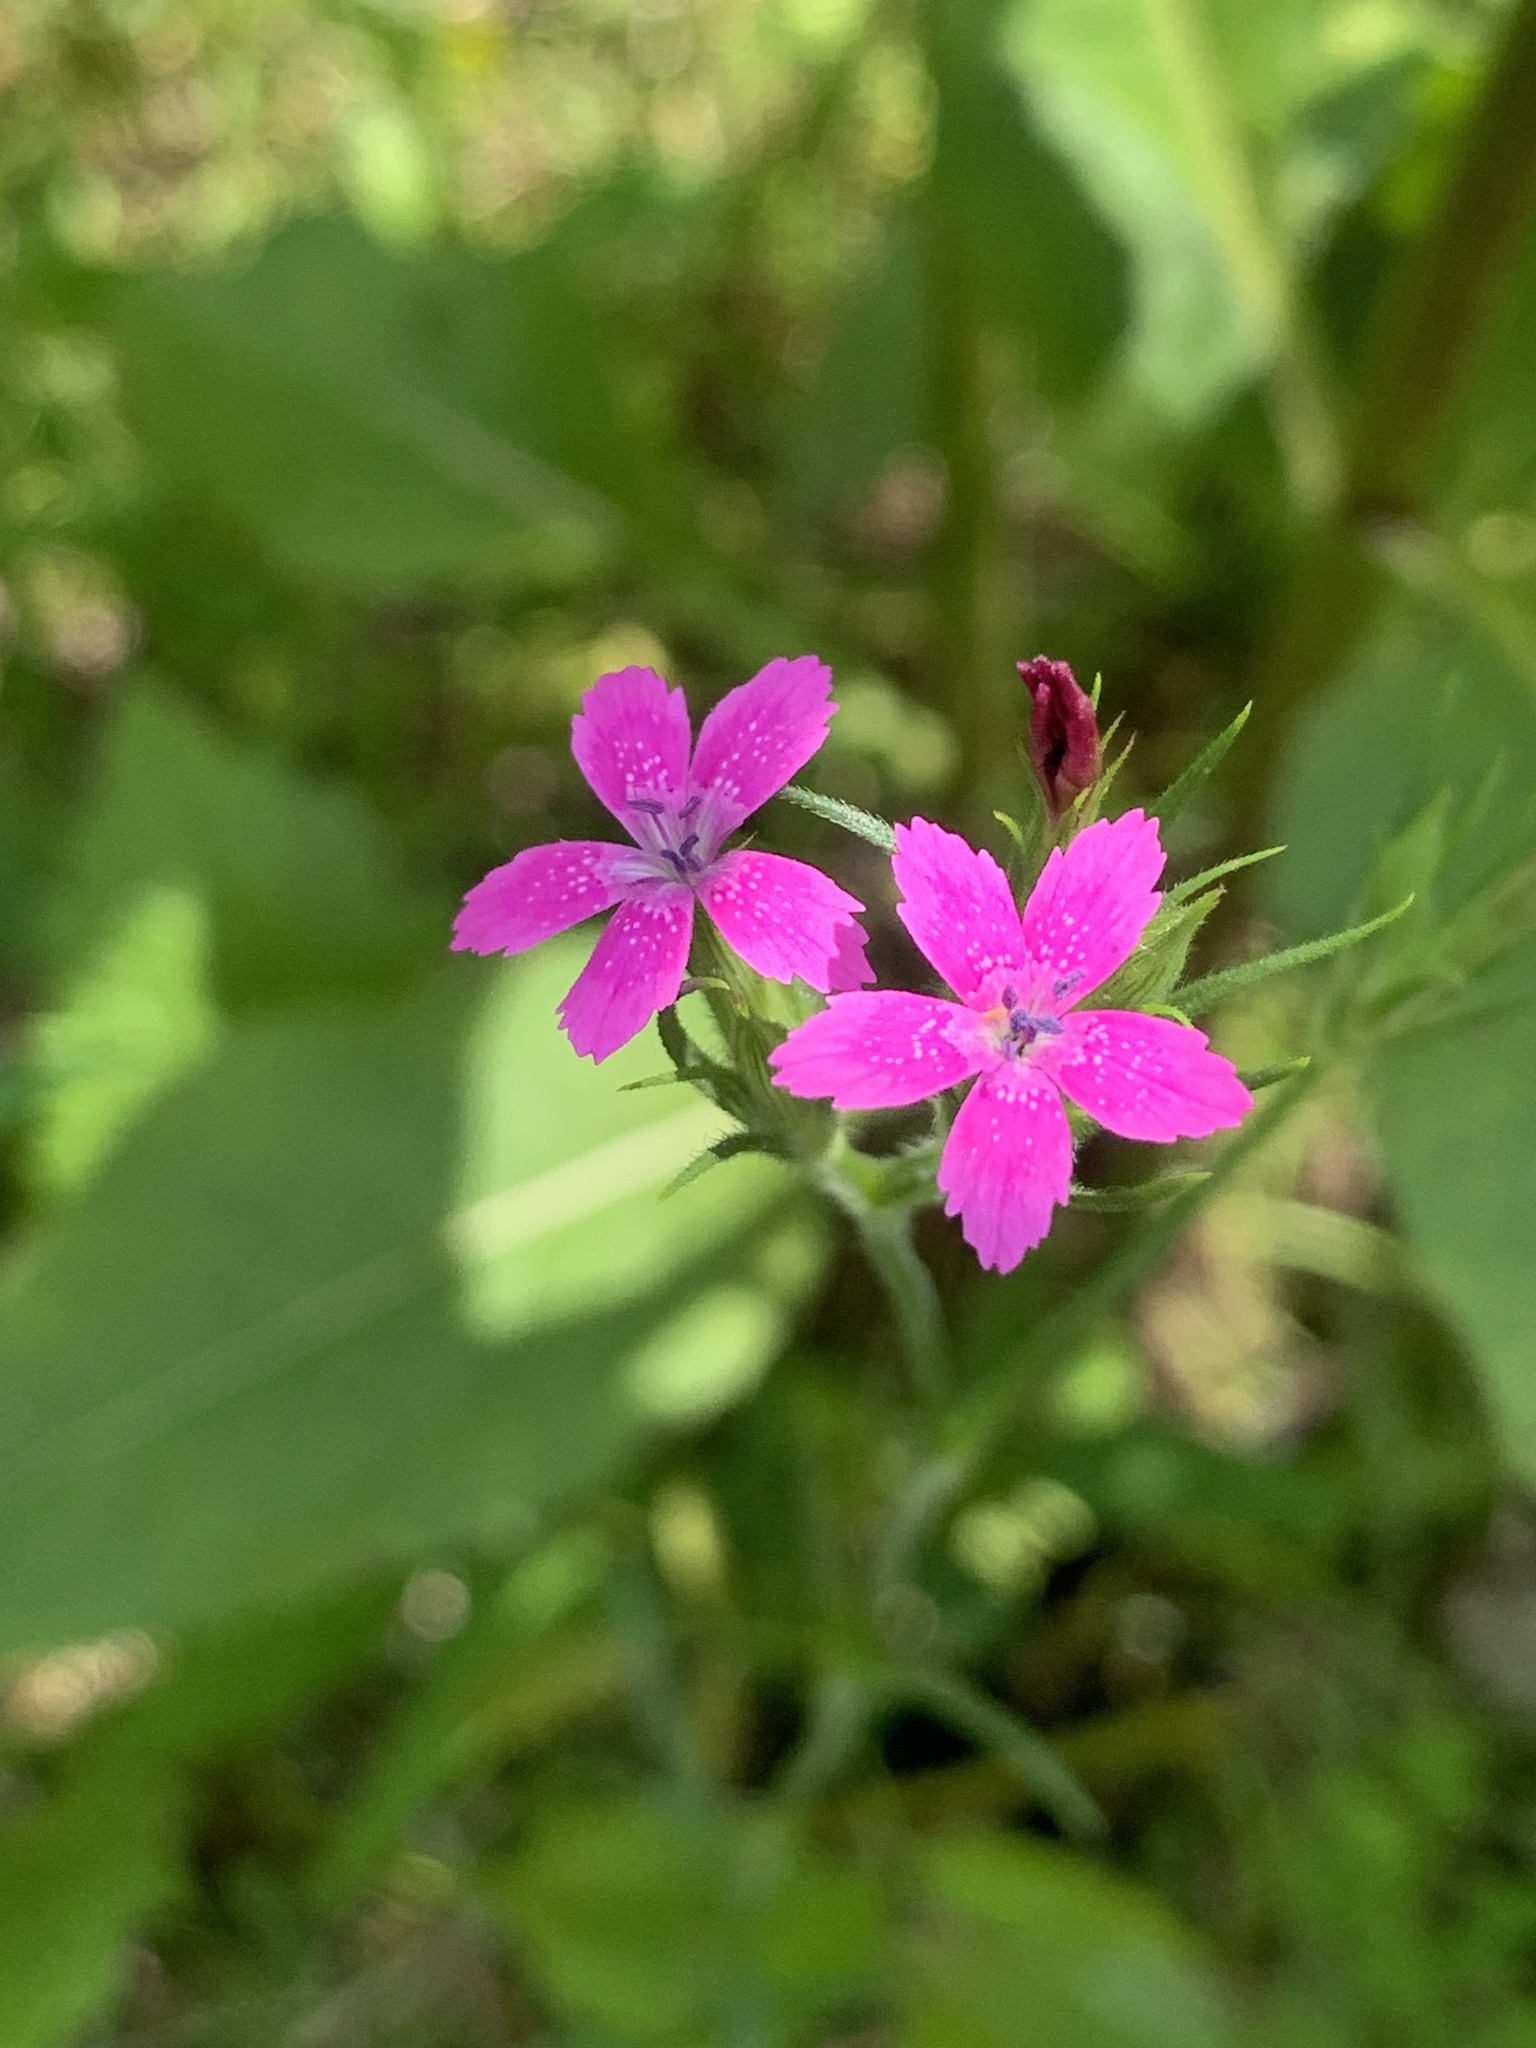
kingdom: Plantae
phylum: Tracheophyta
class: Magnoliopsida
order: Caryophyllales
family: Caryophyllaceae
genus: Dianthus
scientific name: Dianthus armeria
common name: Deptford pink
